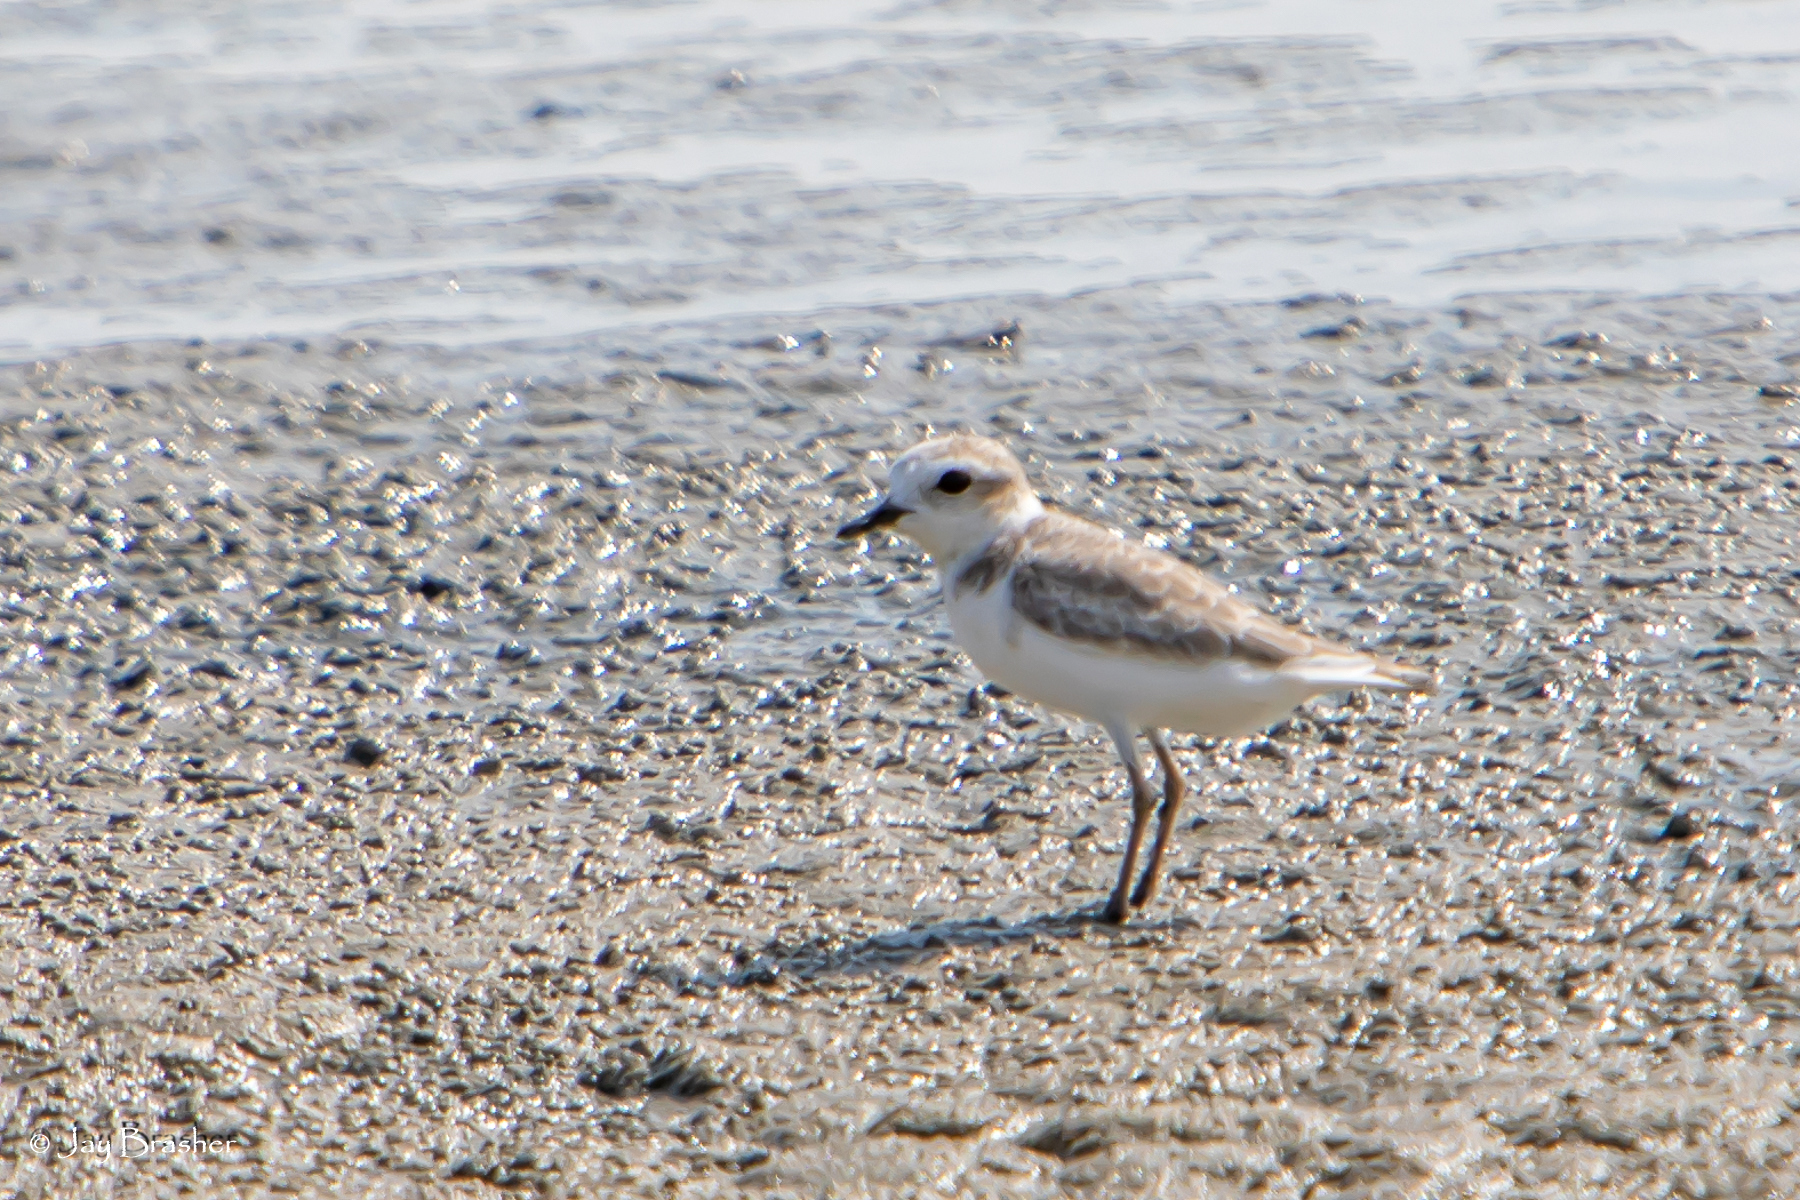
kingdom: Animalia
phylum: Chordata
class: Aves
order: Charadriiformes
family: Charadriidae
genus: Anarhynchus
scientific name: Anarhynchus
